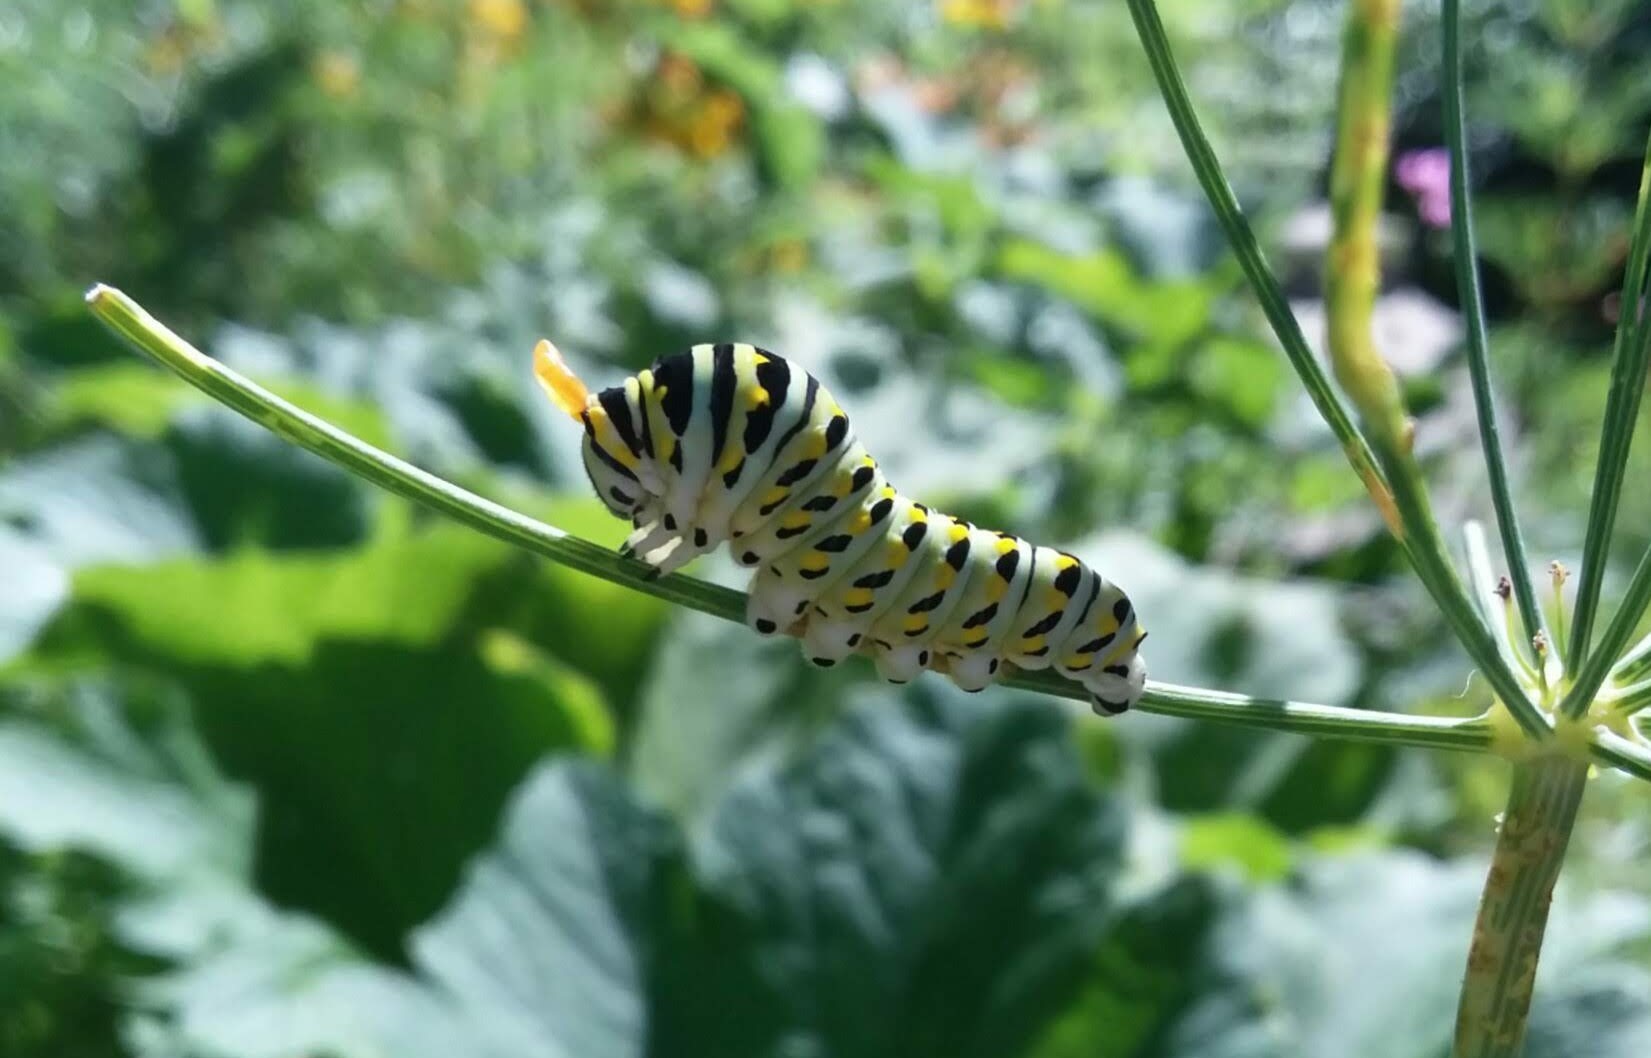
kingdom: Animalia
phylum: Arthropoda
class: Insecta
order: Lepidoptera
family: Papilionidae
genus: Papilio
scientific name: Papilio polyxenes
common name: Black swallowtail
